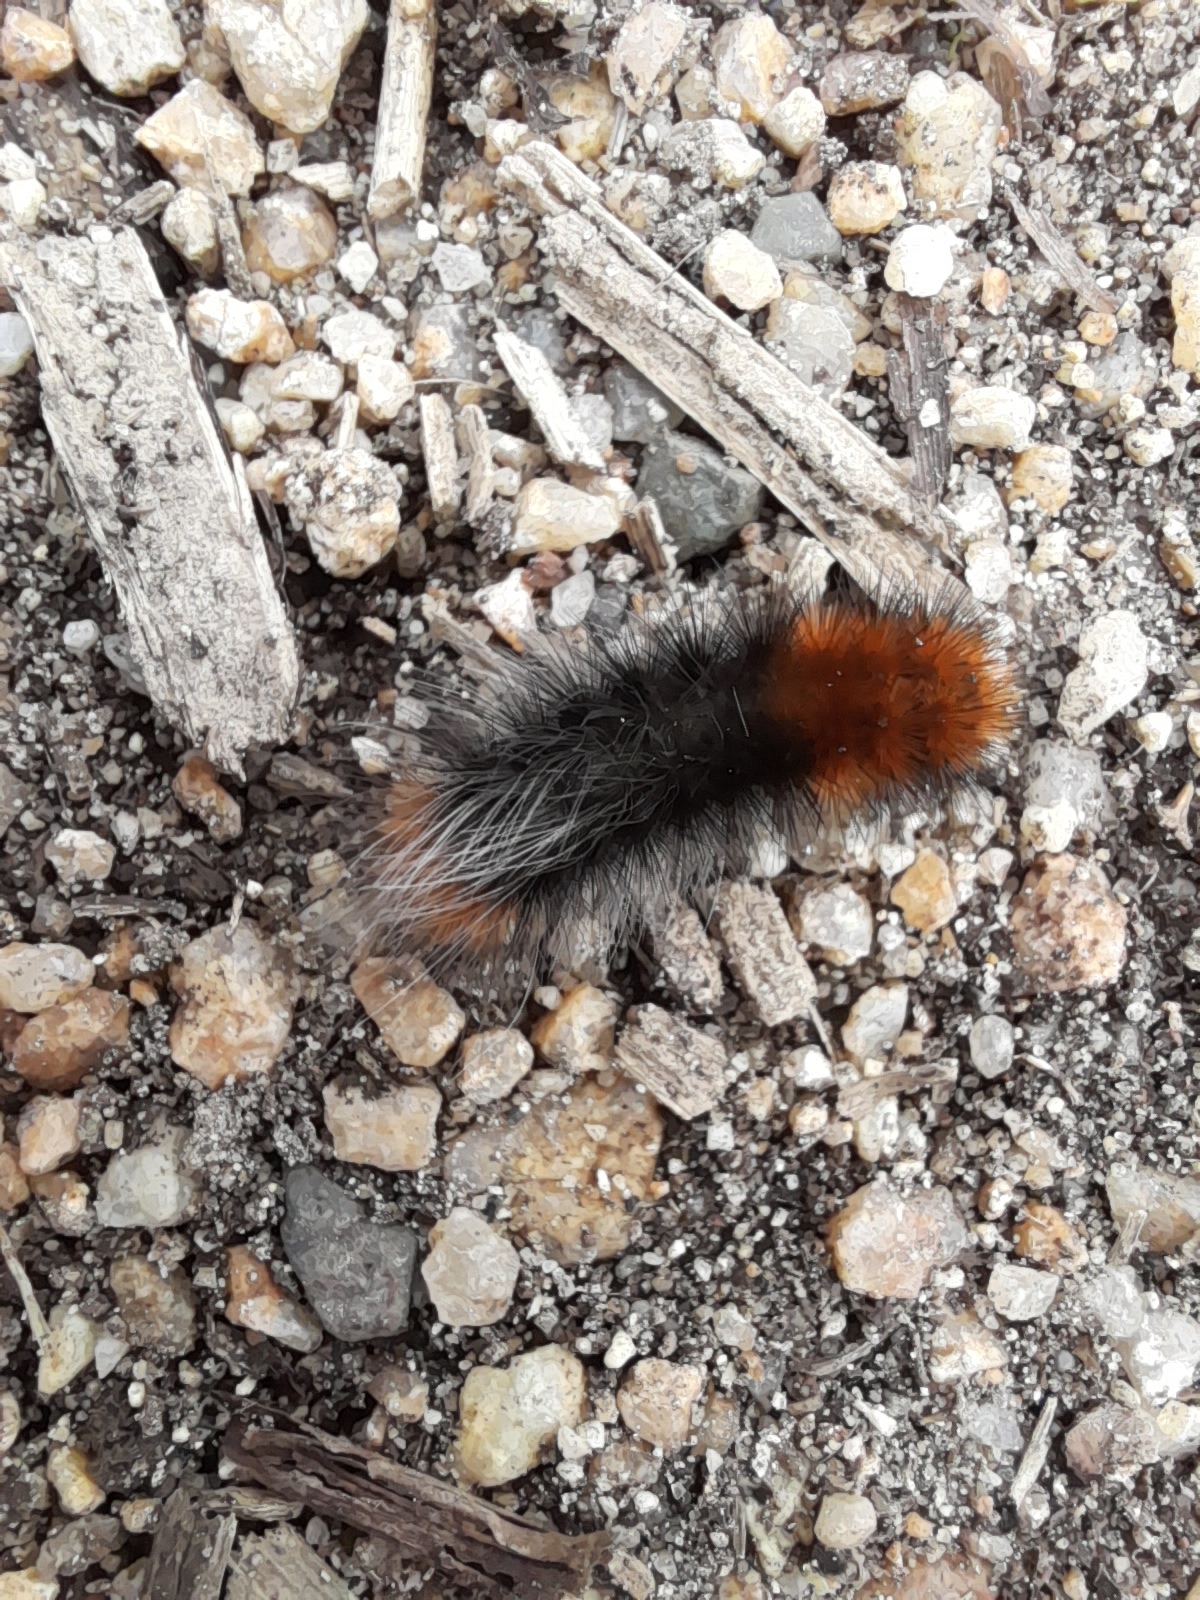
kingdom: Animalia
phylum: Arthropoda
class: Insecta
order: Lepidoptera
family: Erebidae
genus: Arctia
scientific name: Arctia tigrina
